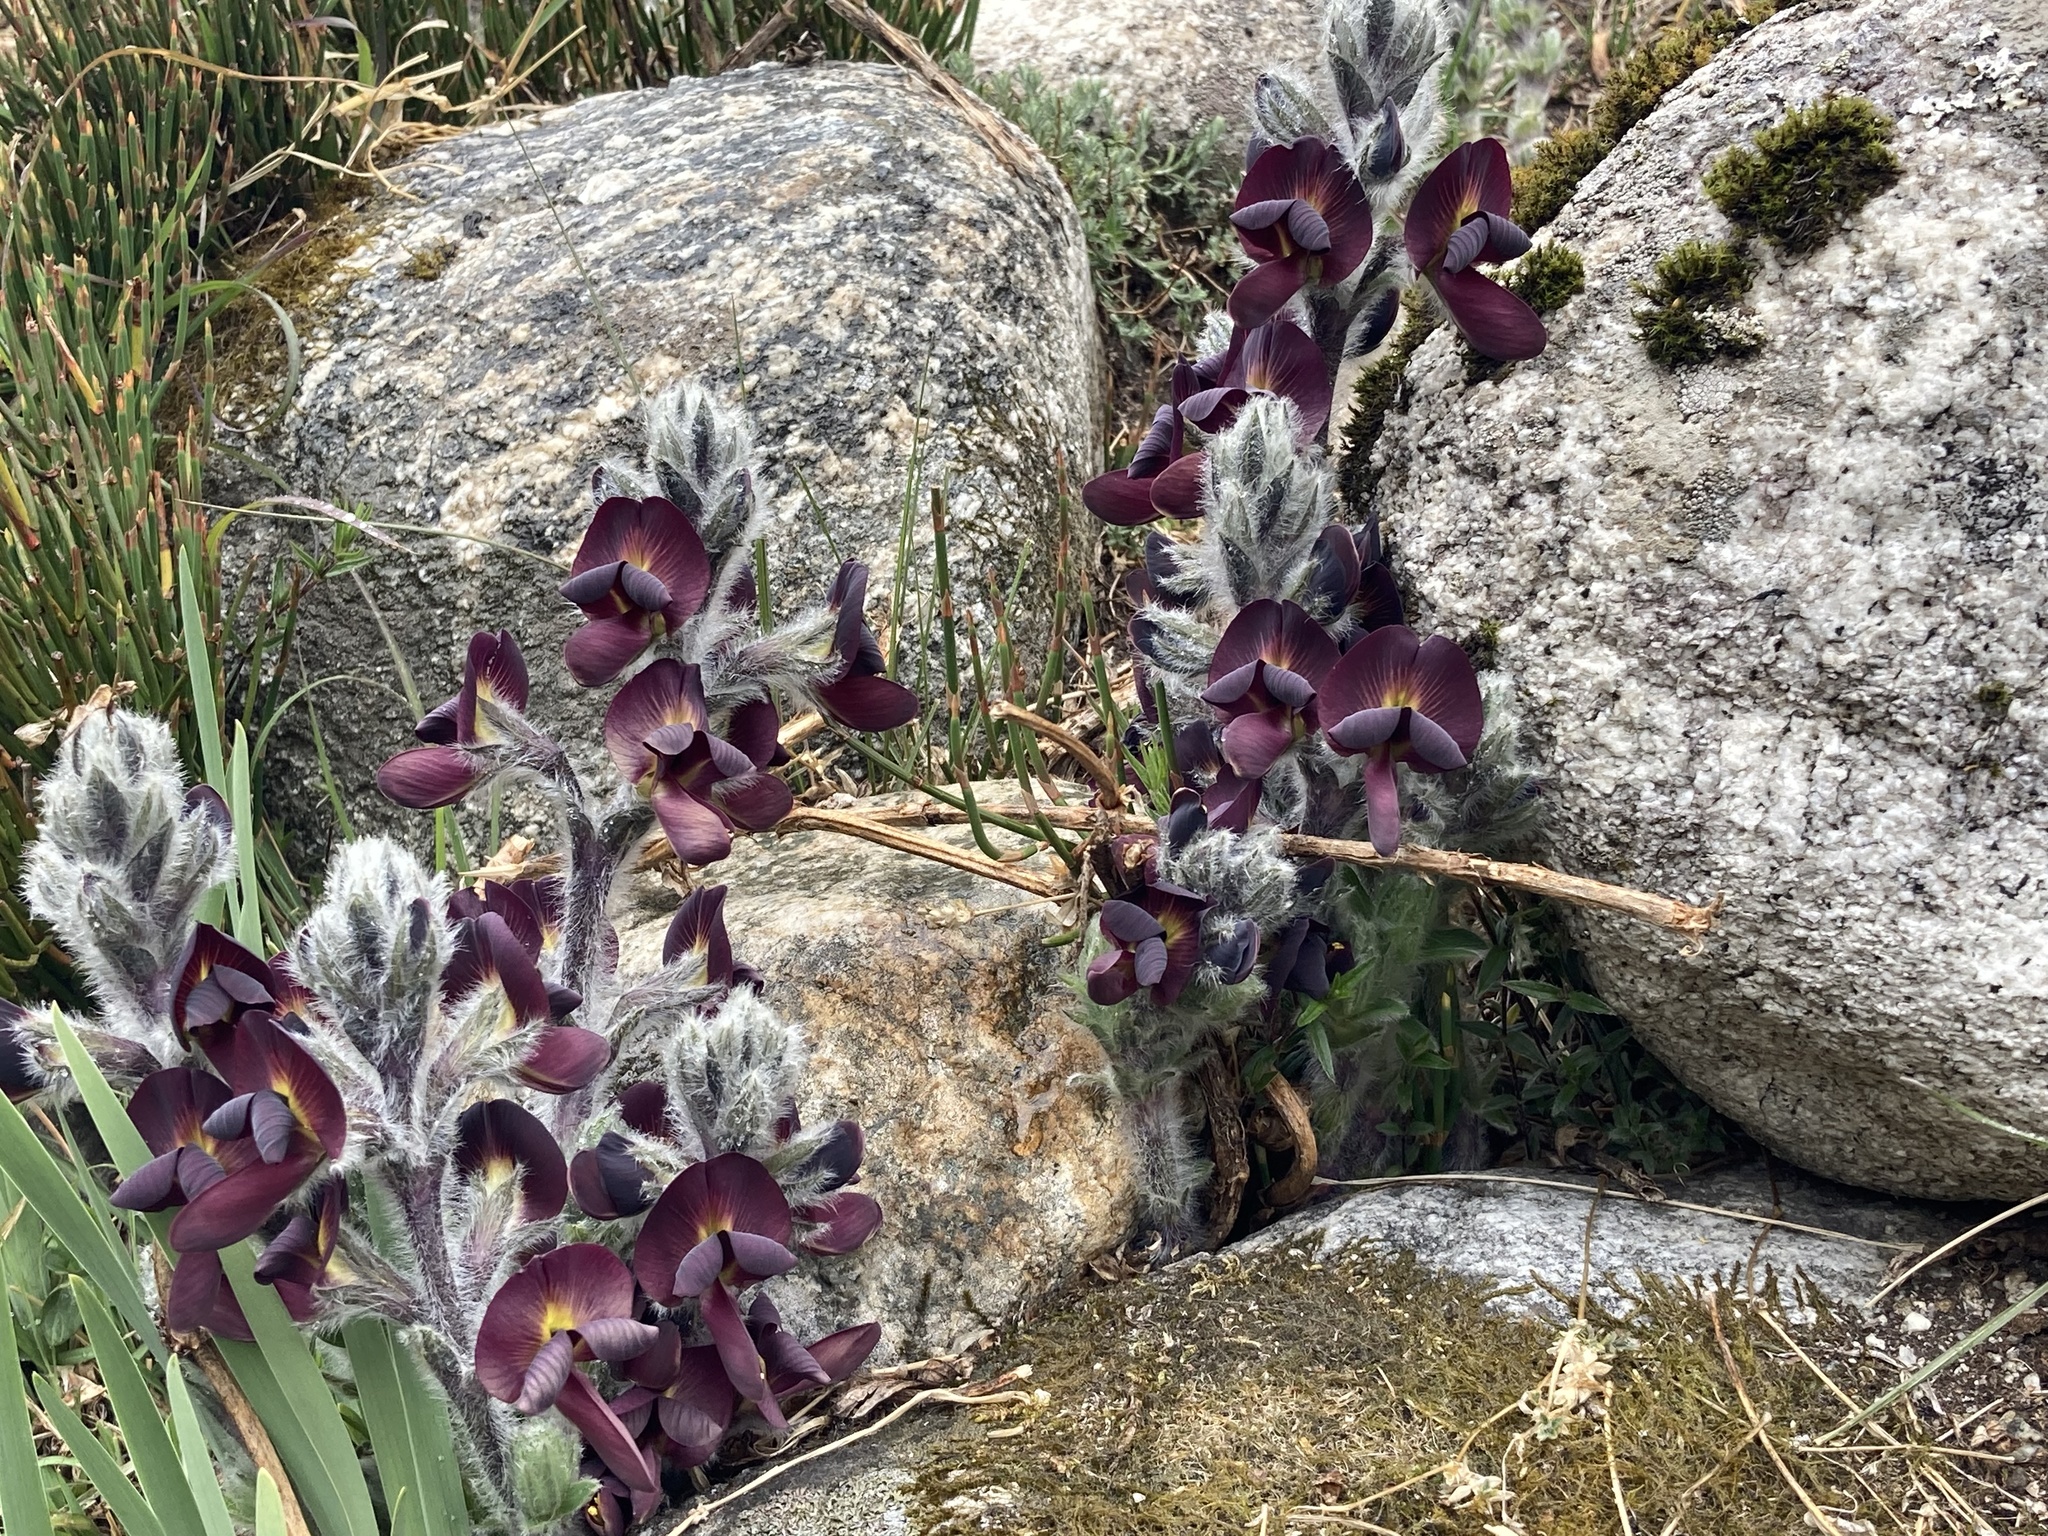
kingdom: Plantae
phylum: Tracheophyta
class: Magnoliopsida
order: Fabales
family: Fabaceae
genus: Thermopsis
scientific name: Thermopsis barbata
